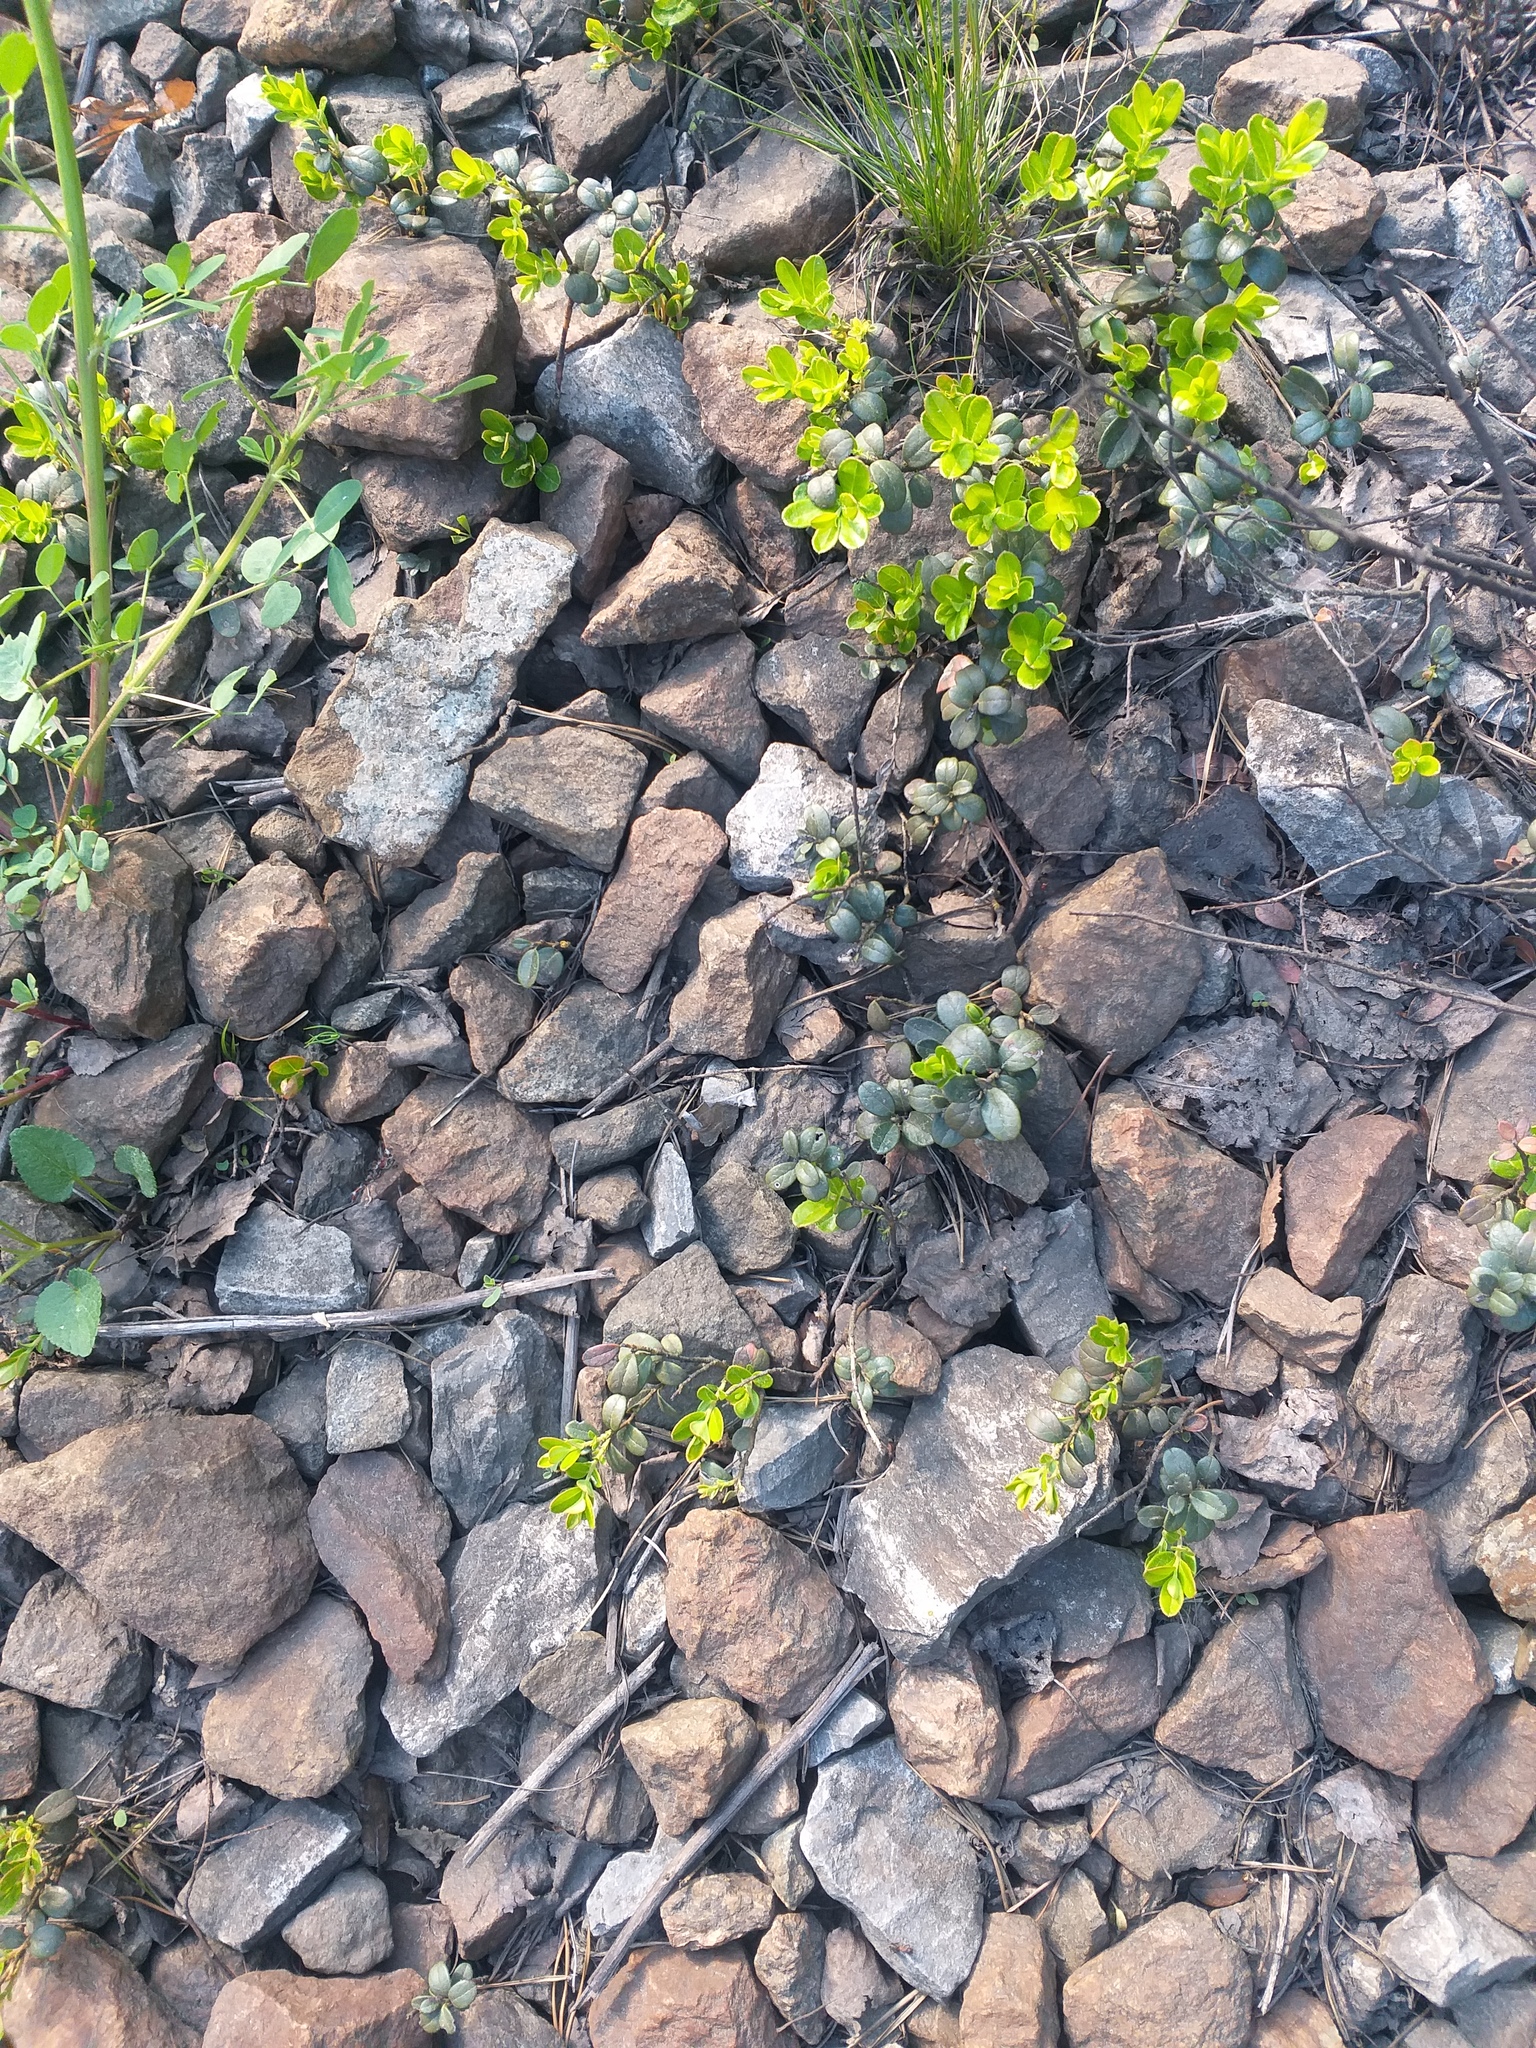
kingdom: Plantae
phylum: Tracheophyta
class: Magnoliopsida
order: Ericales
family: Ericaceae
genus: Vaccinium
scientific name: Vaccinium vitis-idaea
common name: Cowberry
